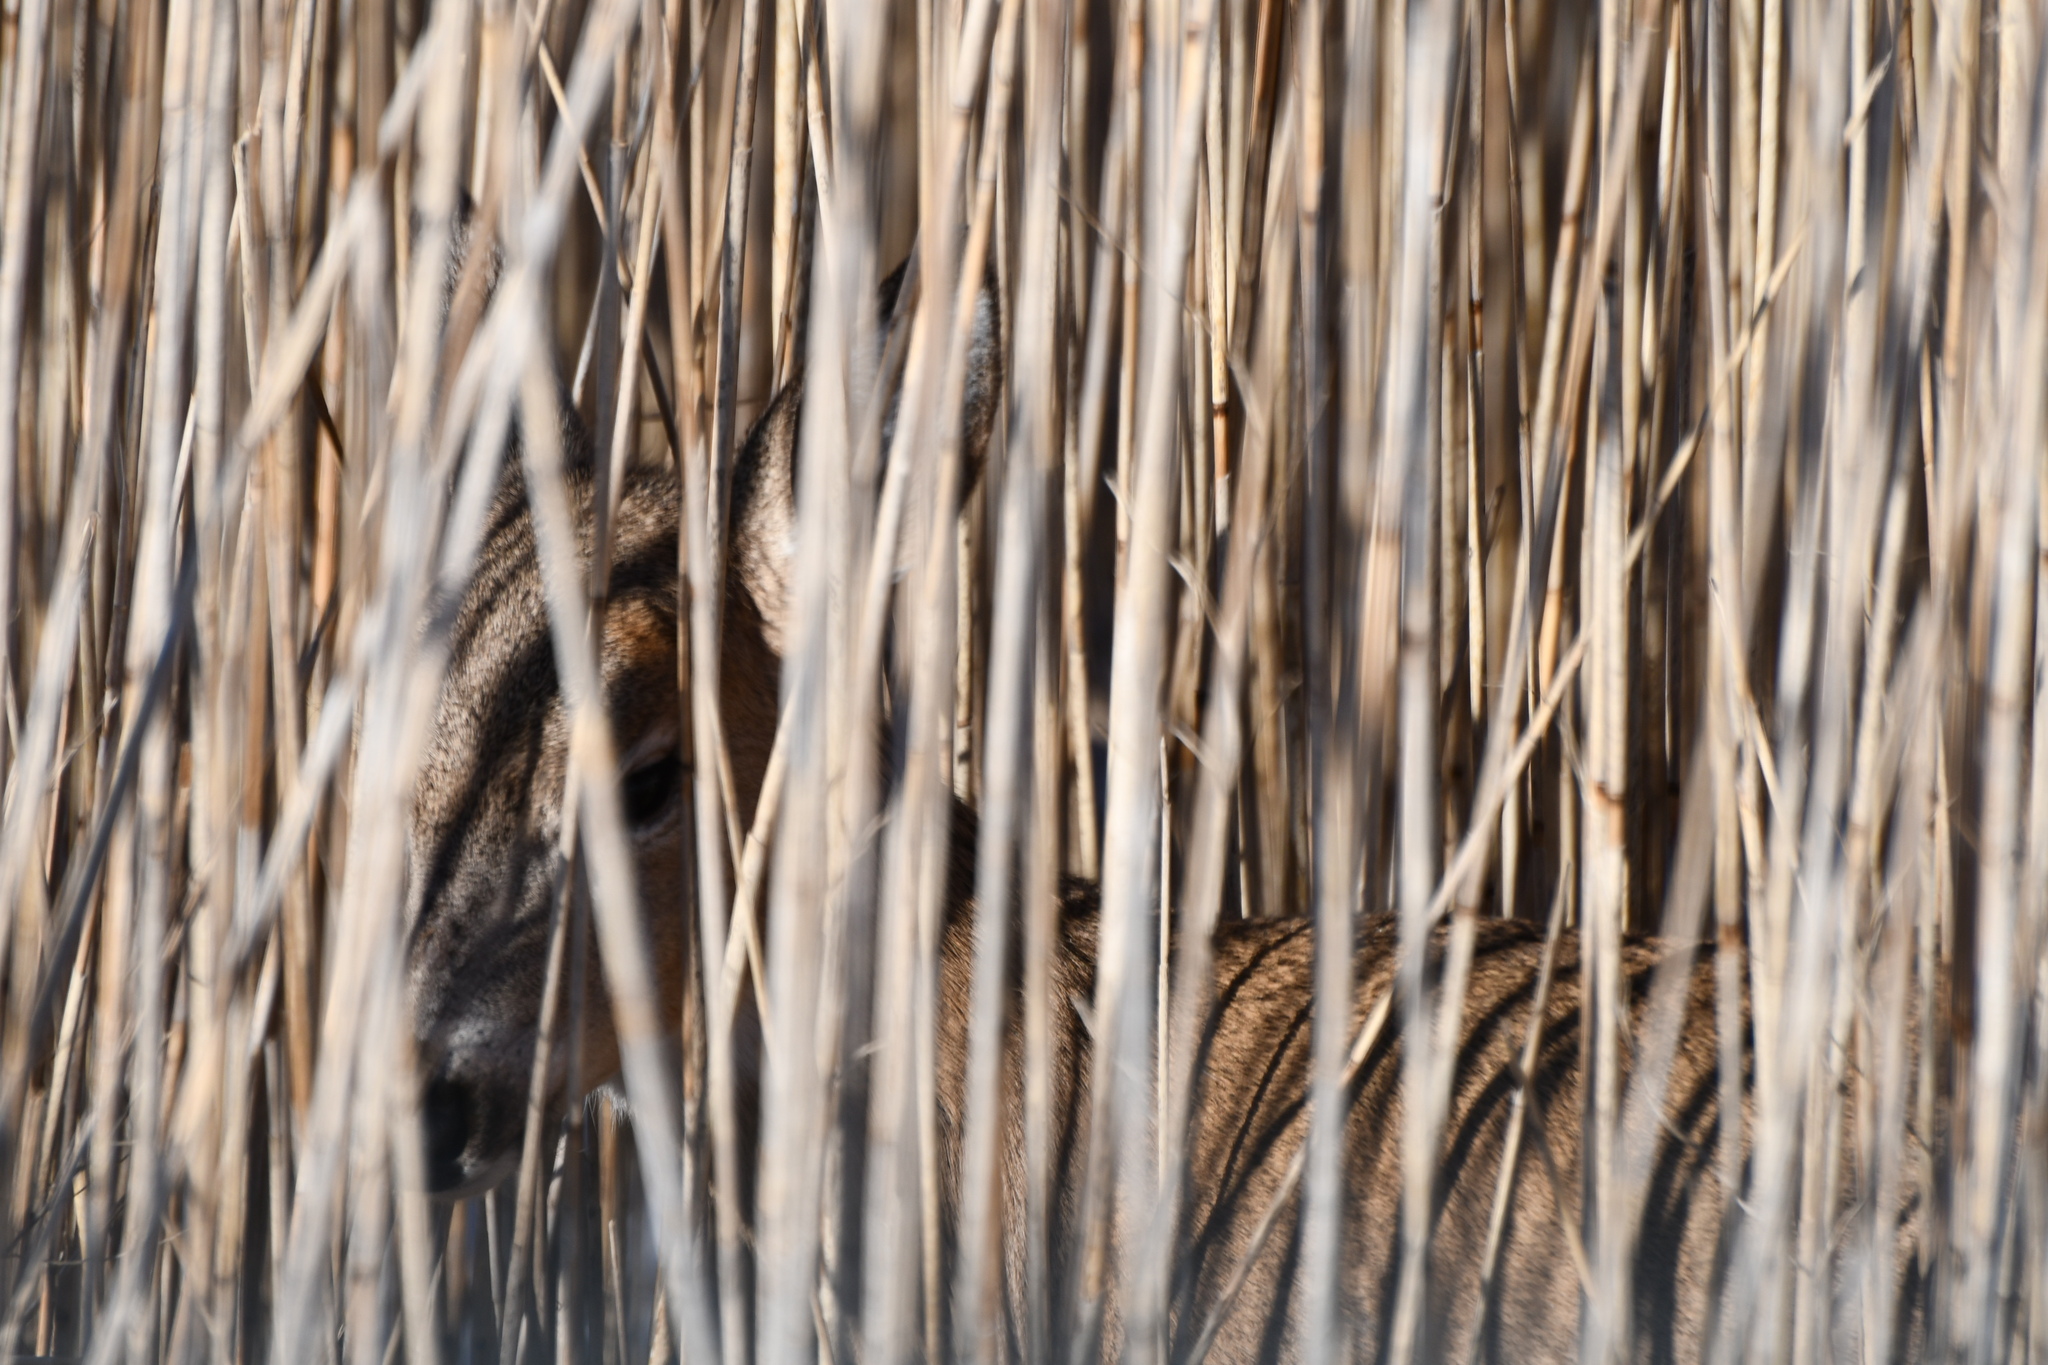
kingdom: Animalia
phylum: Chordata
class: Mammalia
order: Artiodactyla
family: Cervidae
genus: Odocoileus
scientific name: Odocoileus virginianus
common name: White-tailed deer
